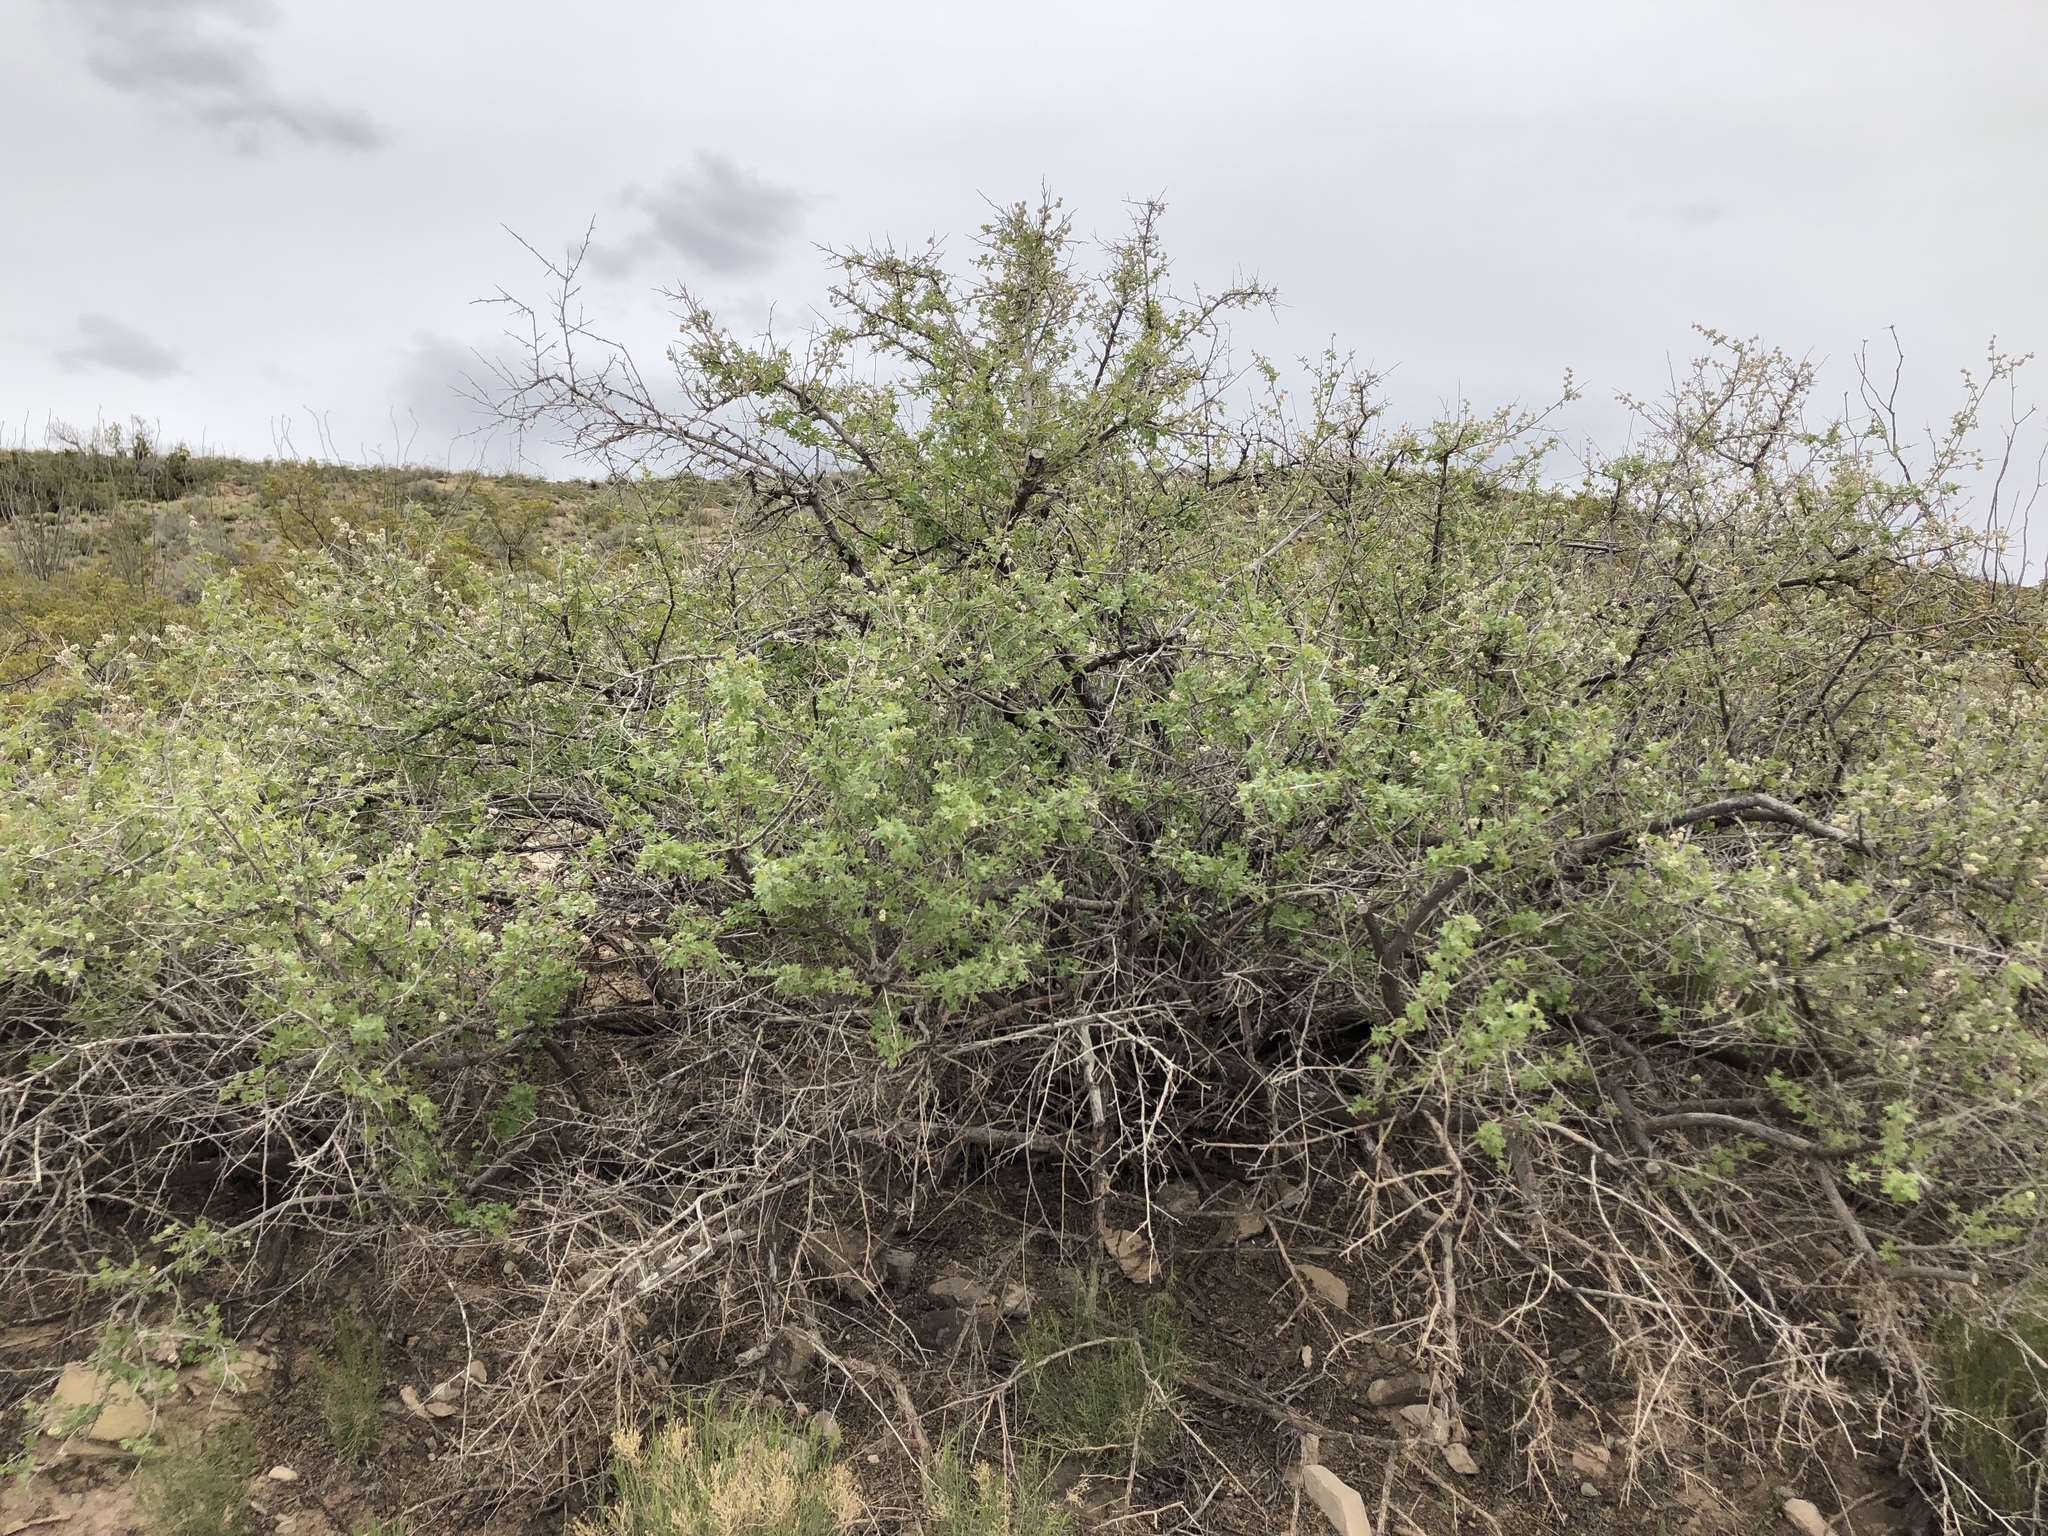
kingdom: Plantae
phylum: Tracheophyta
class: Magnoliopsida
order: Sapindales
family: Anacardiaceae
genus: Rhus
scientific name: Rhus microphylla
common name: Desert sumac
